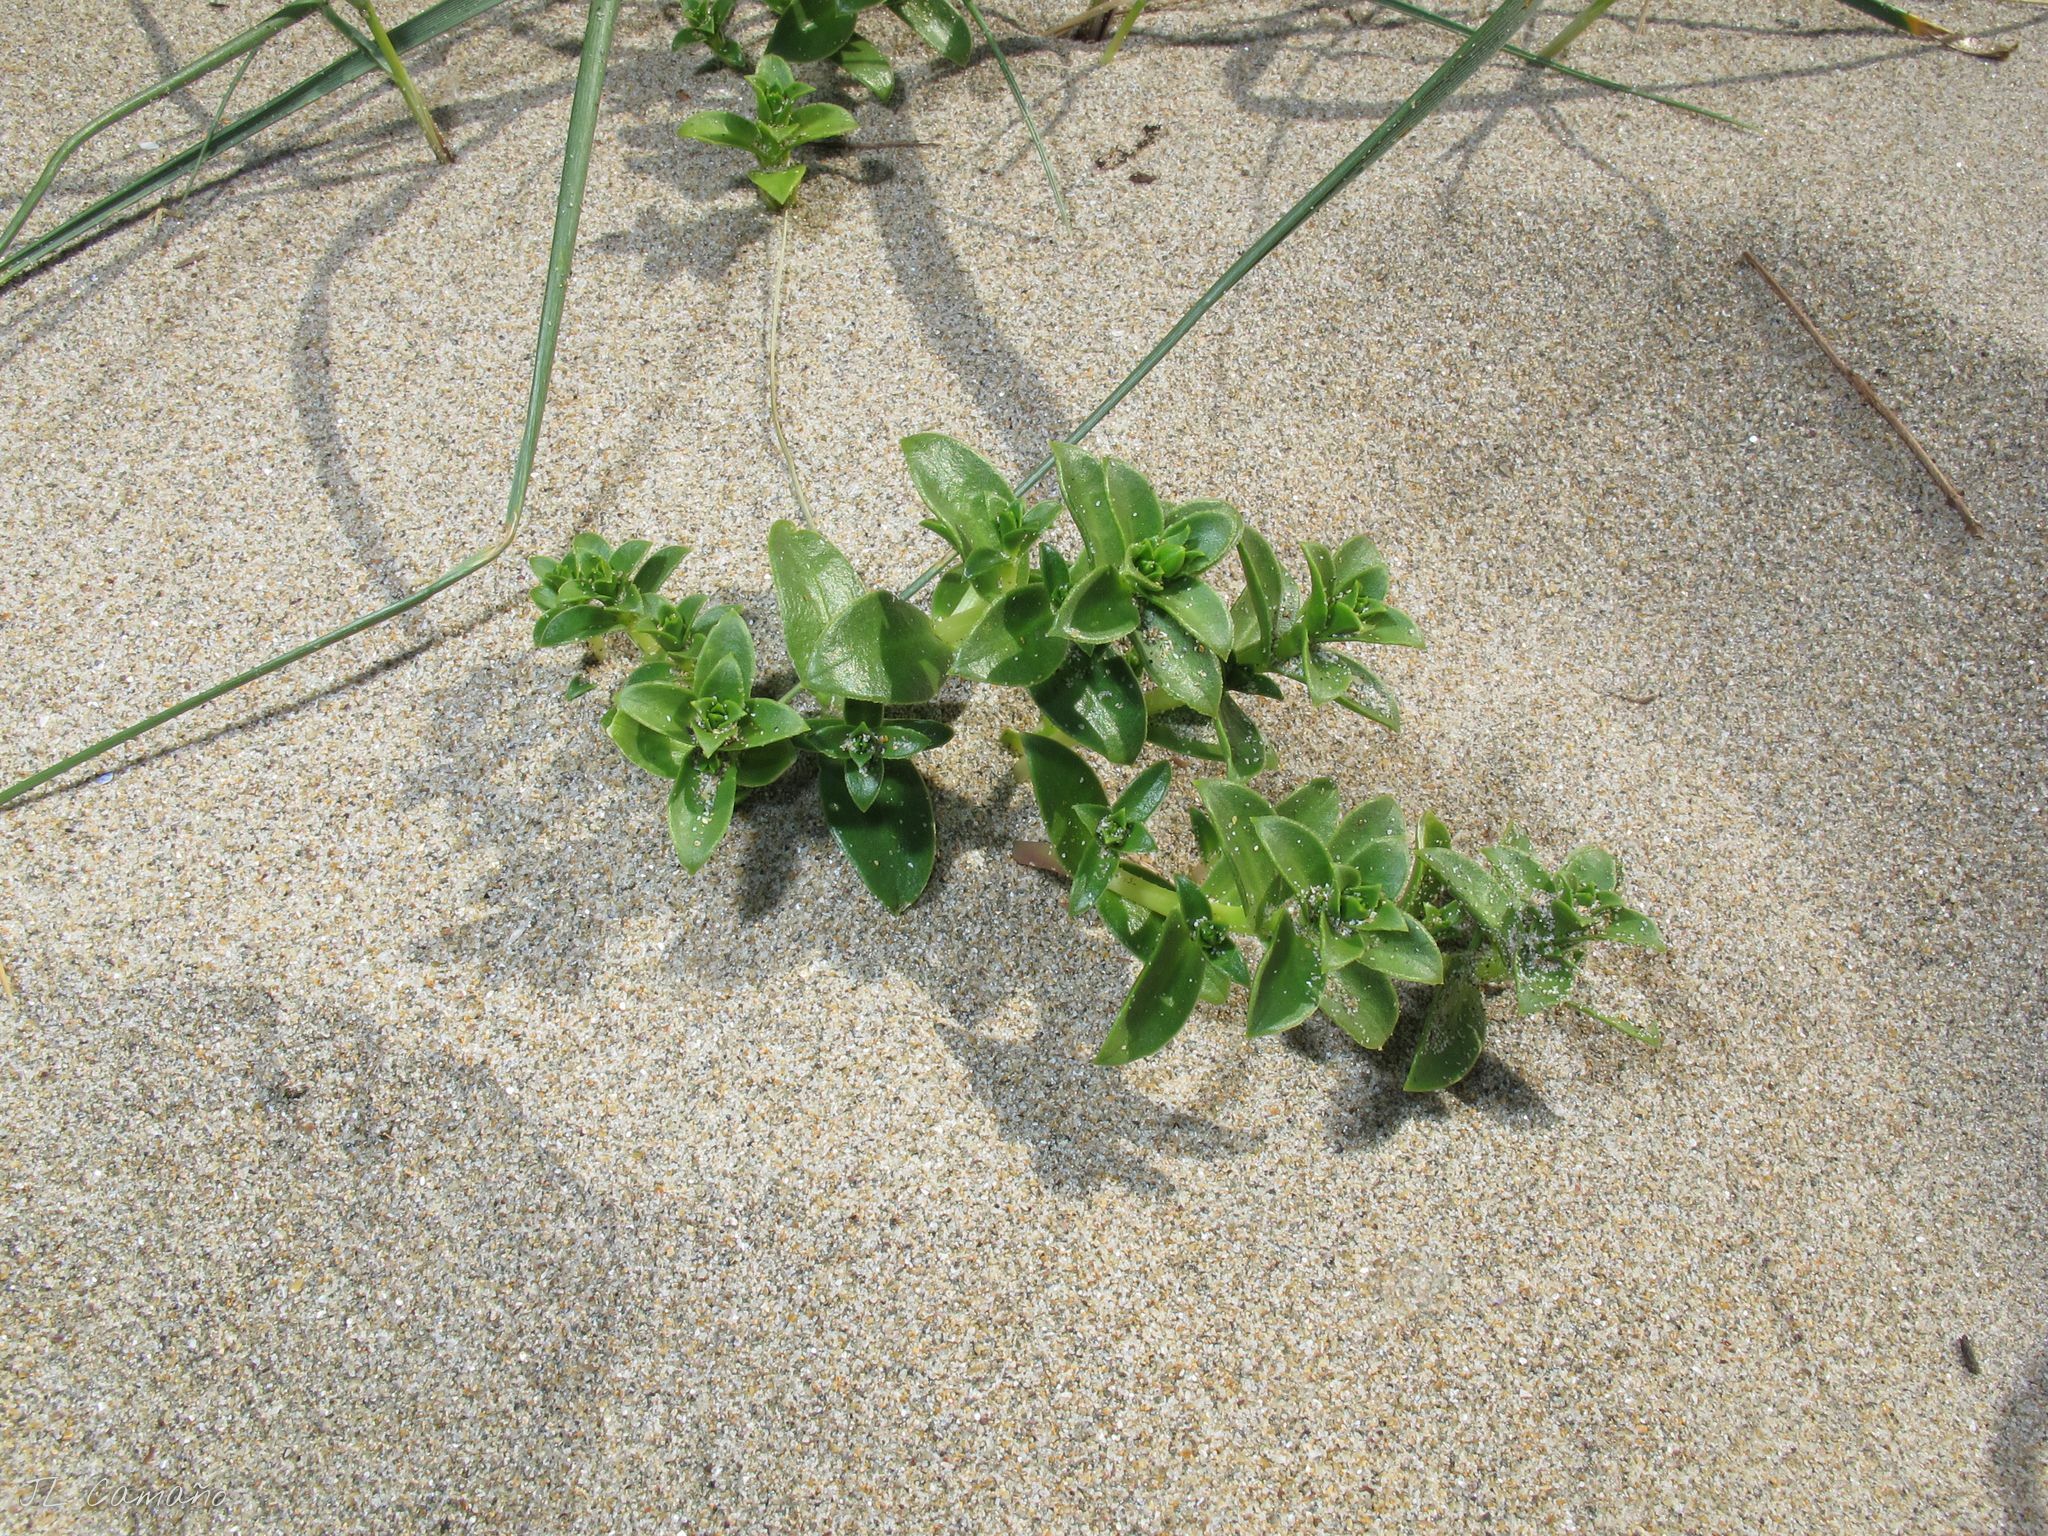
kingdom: Plantae
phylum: Tracheophyta
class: Magnoliopsida
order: Caryophyllales
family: Caryophyllaceae
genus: Honckenya
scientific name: Honckenya peploides
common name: Sea sandwort
